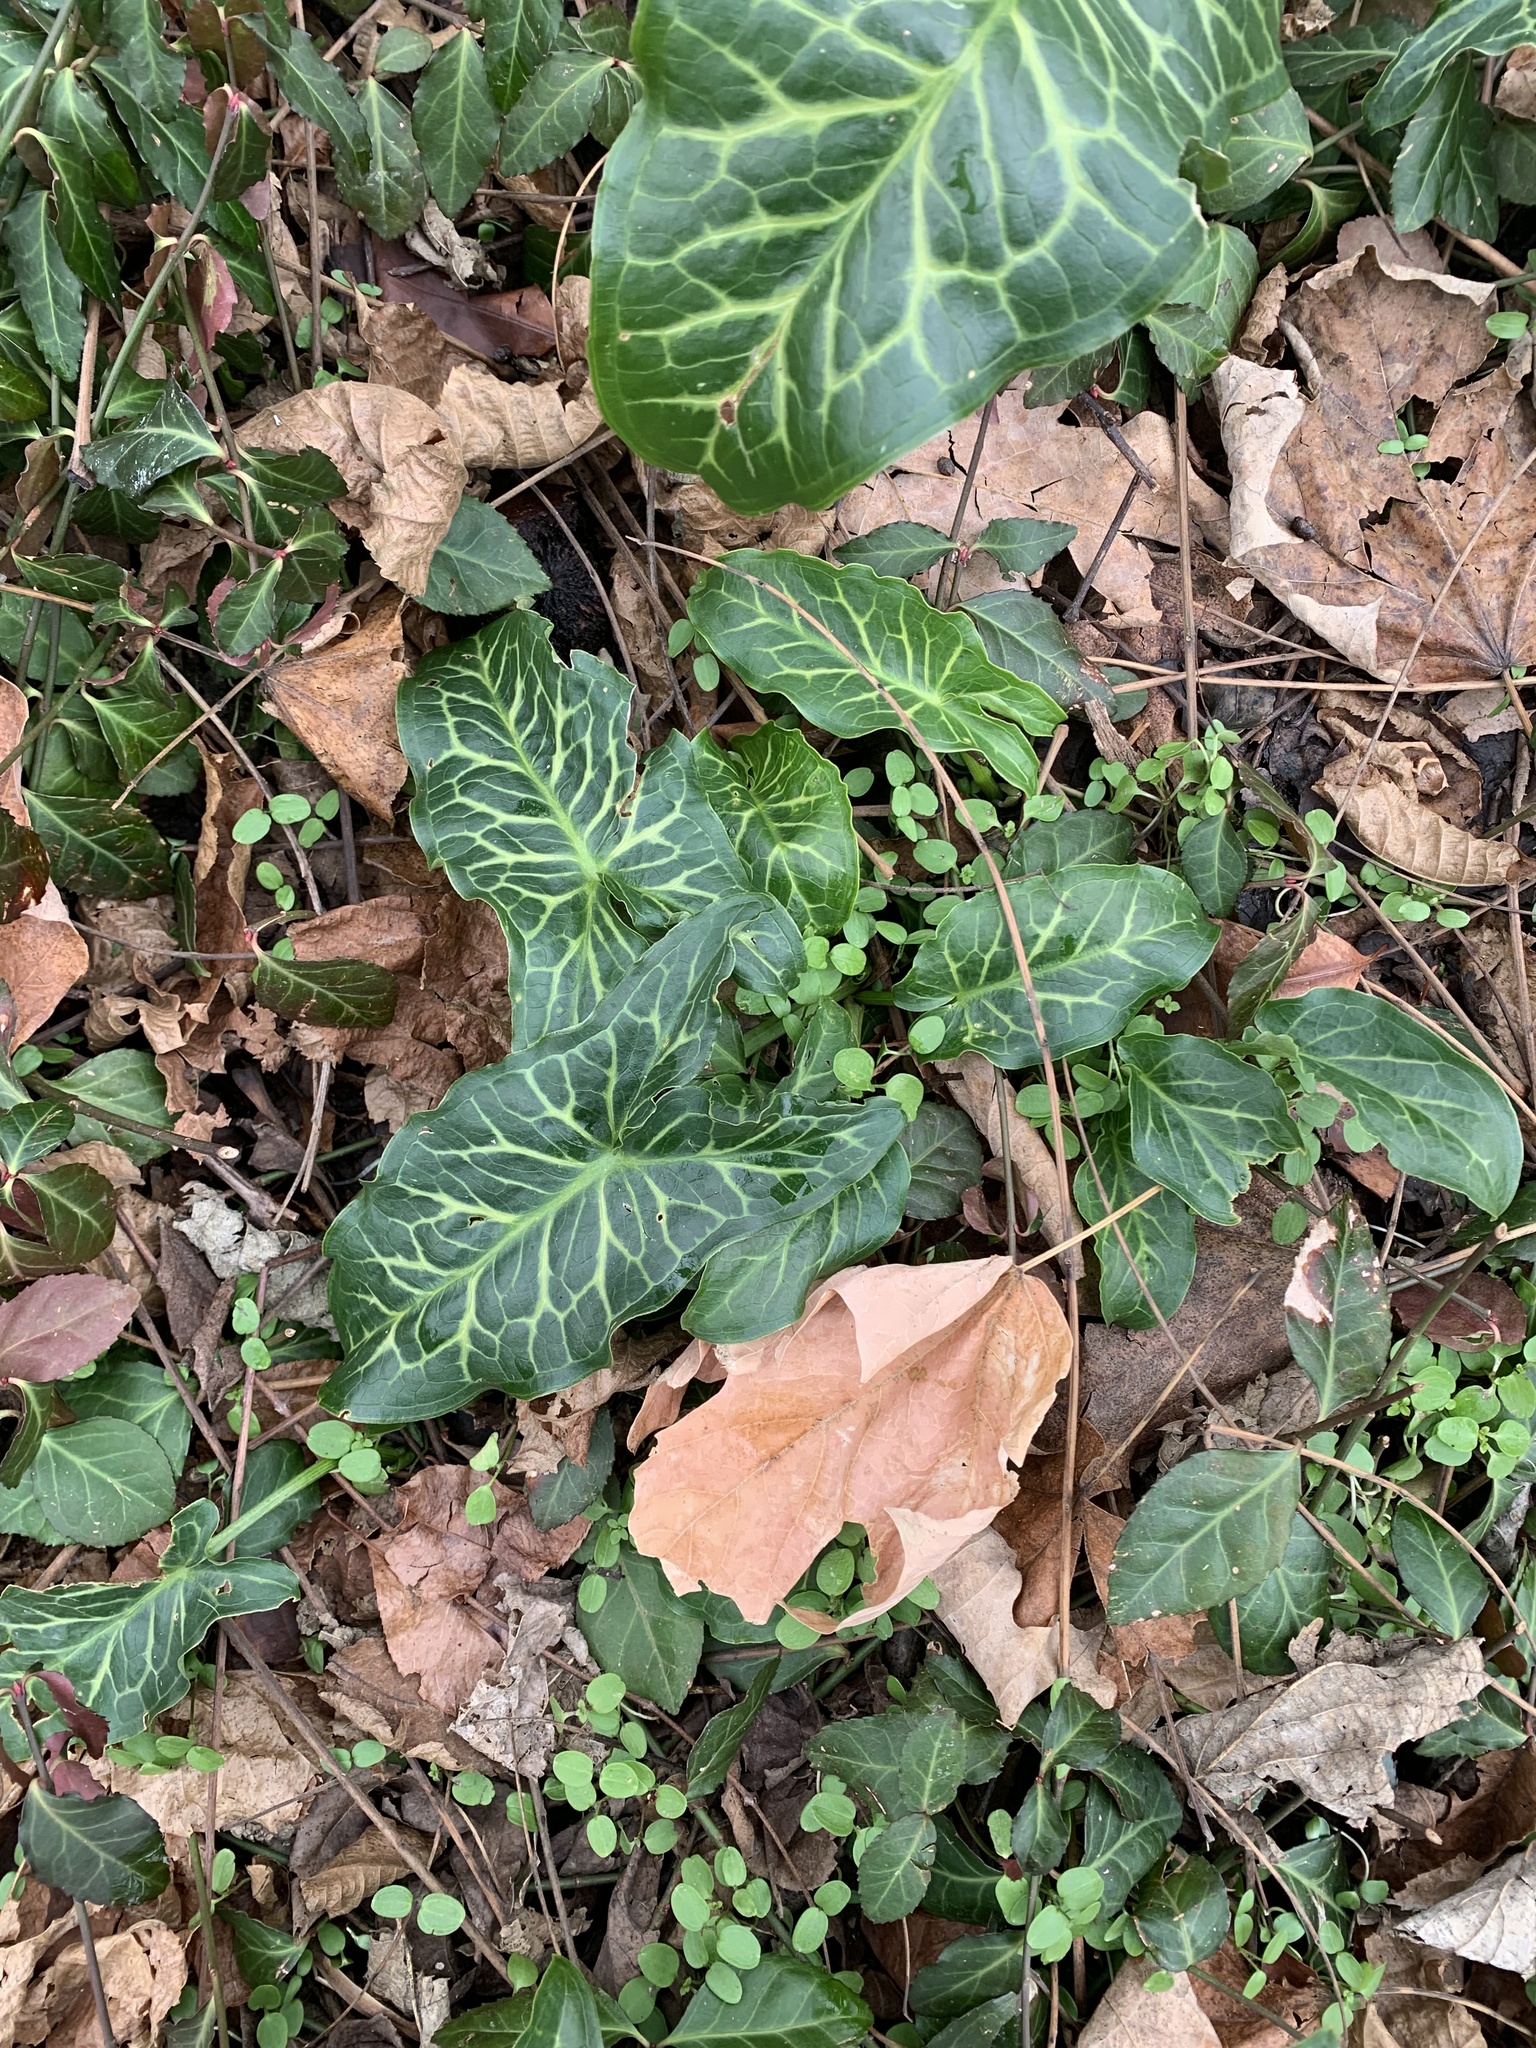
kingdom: Plantae
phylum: Tracheophyta
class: Liliopsida
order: Alismatales
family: Araceae
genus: Arum
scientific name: Arum italicum
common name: Italian lords-and-ladies
